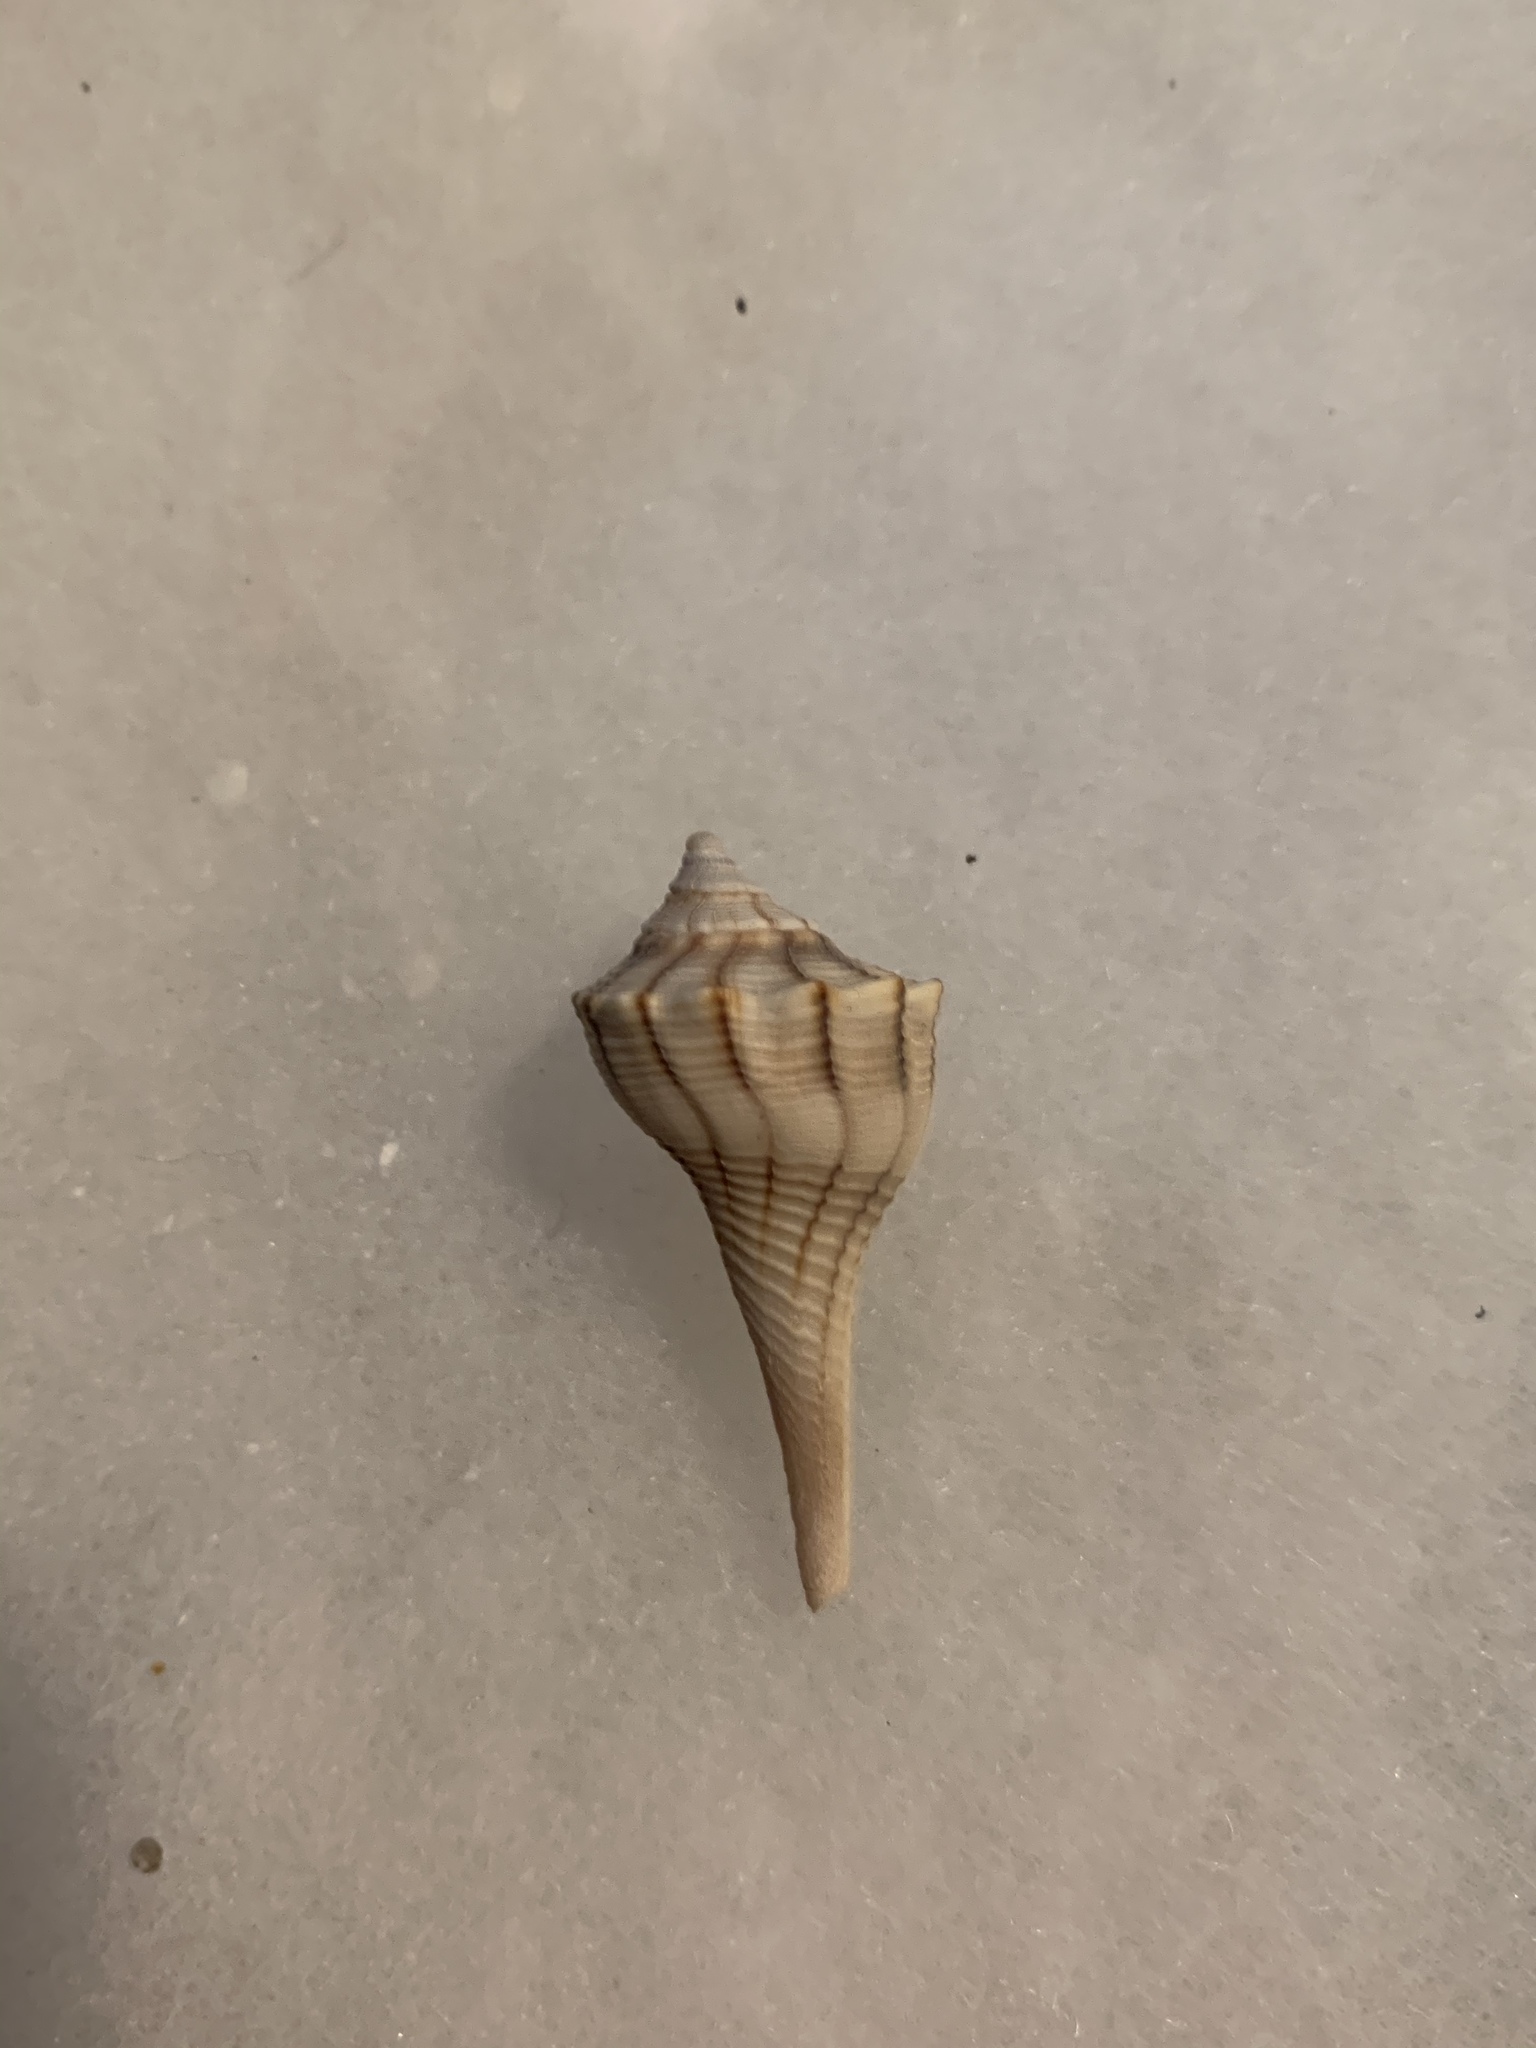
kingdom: Animalia
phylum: Mollusca
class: Gastropoda
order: Neogastropoda
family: Busyconidae
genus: Sinistrofulgur
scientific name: Sinistrofulgur sinistrum
